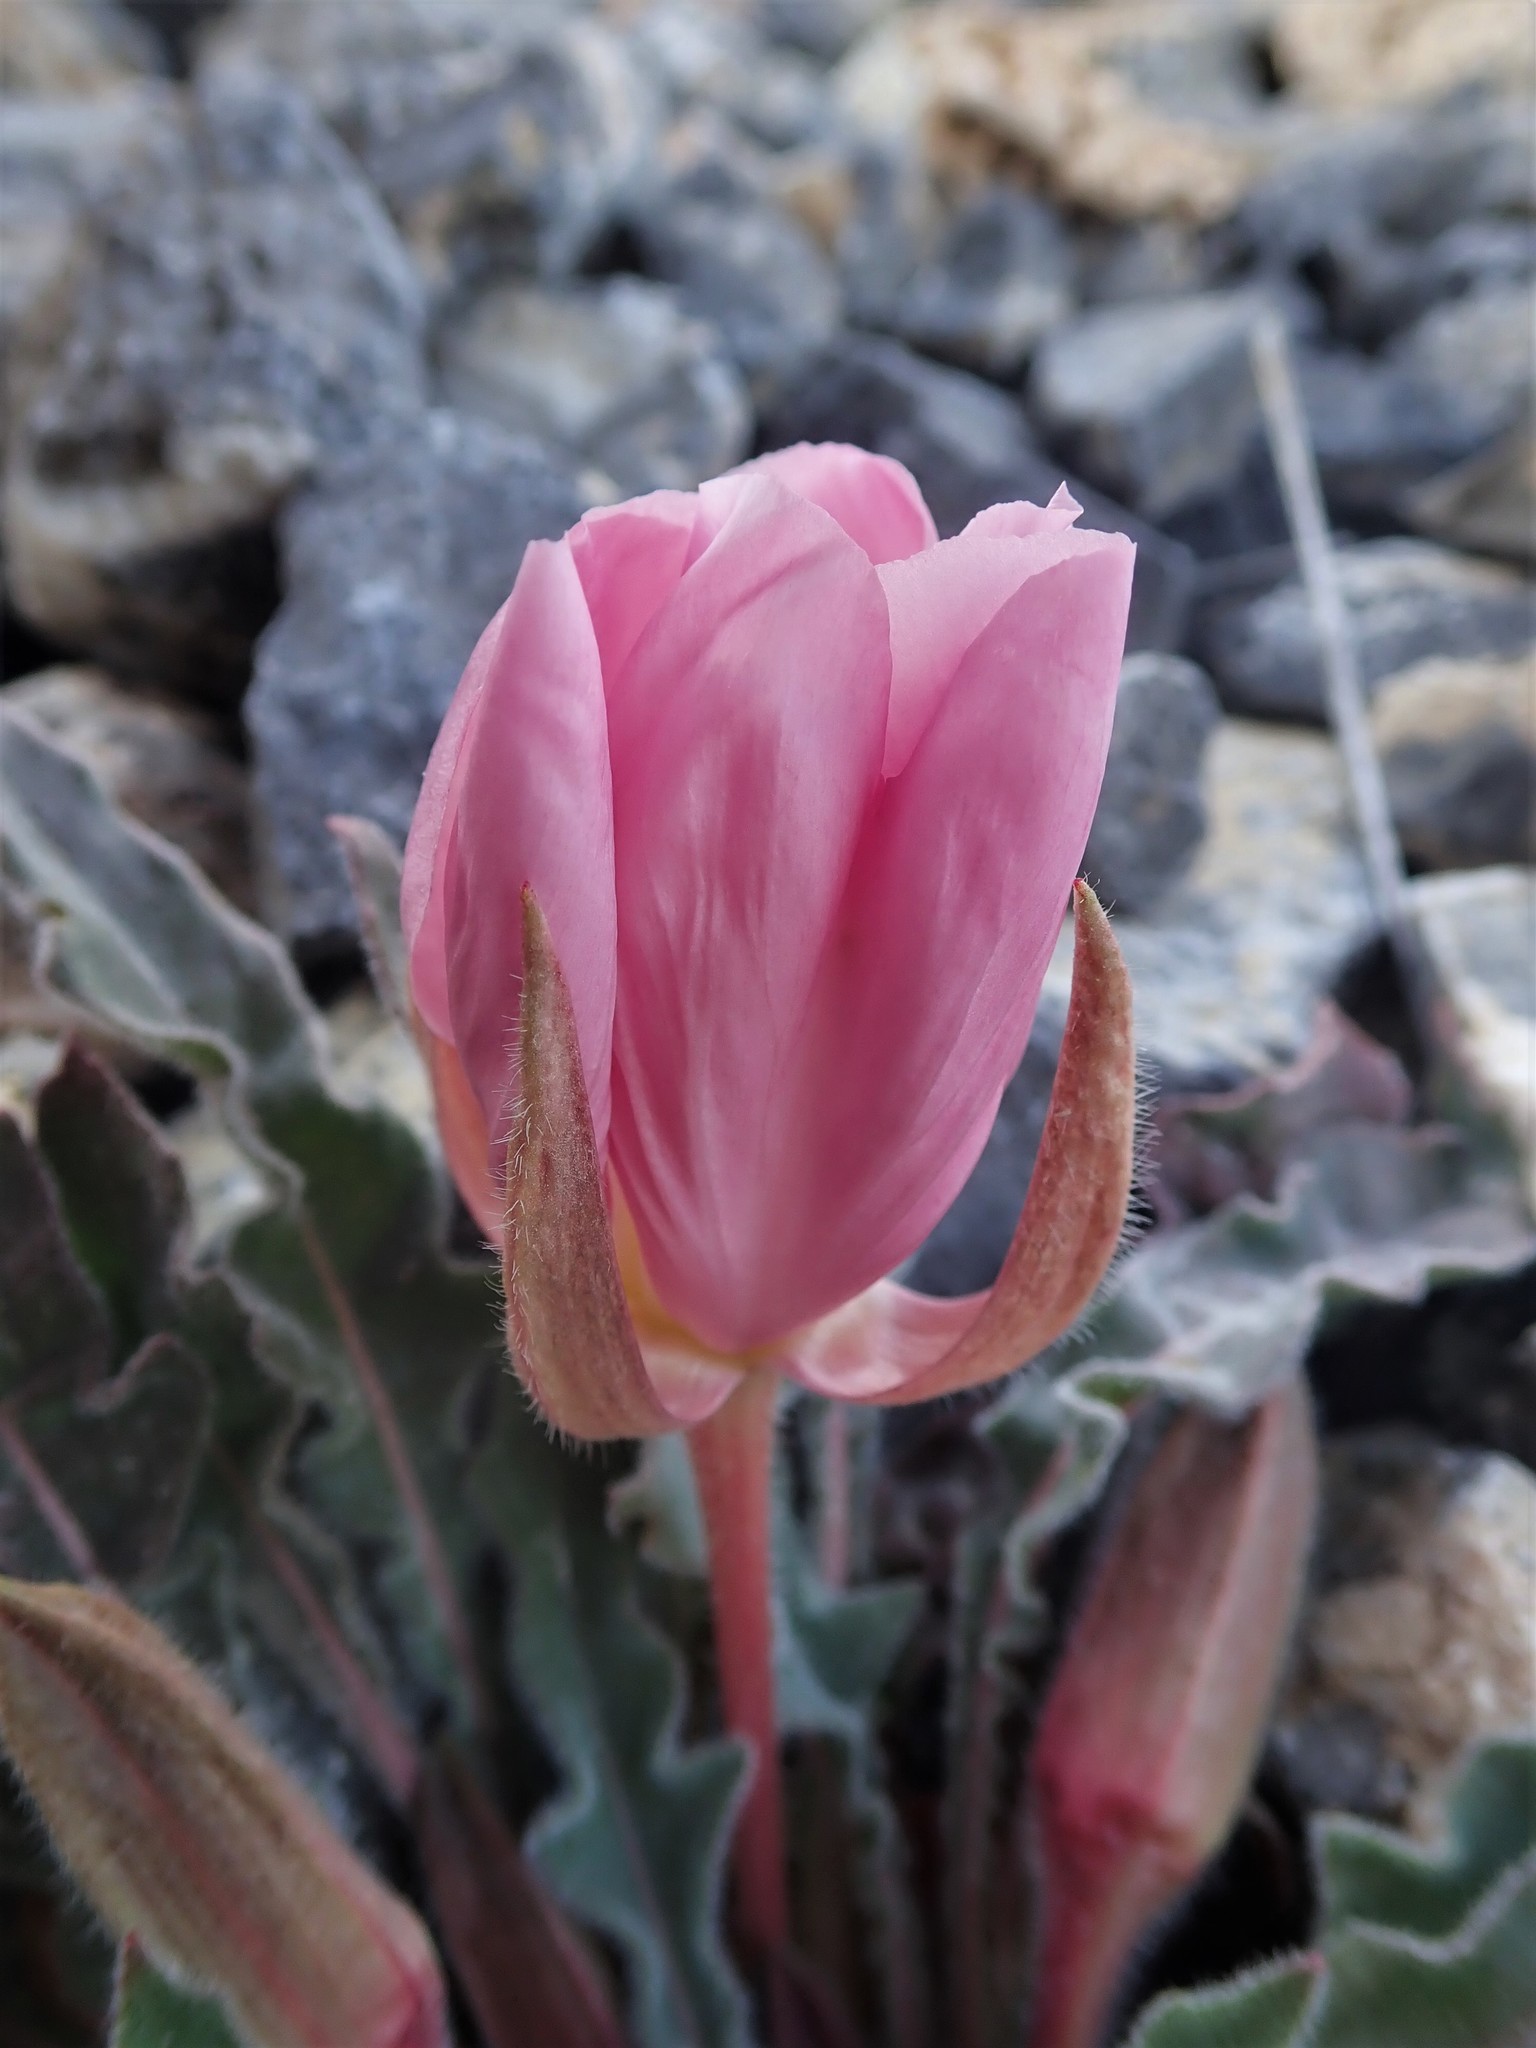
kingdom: Plantae
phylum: Tracheophyta
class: Magnoliopsida
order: Myrtales
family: Onagraceae
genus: Oenothera
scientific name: Oenothera cespitosa
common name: Tufted evening-primrose
